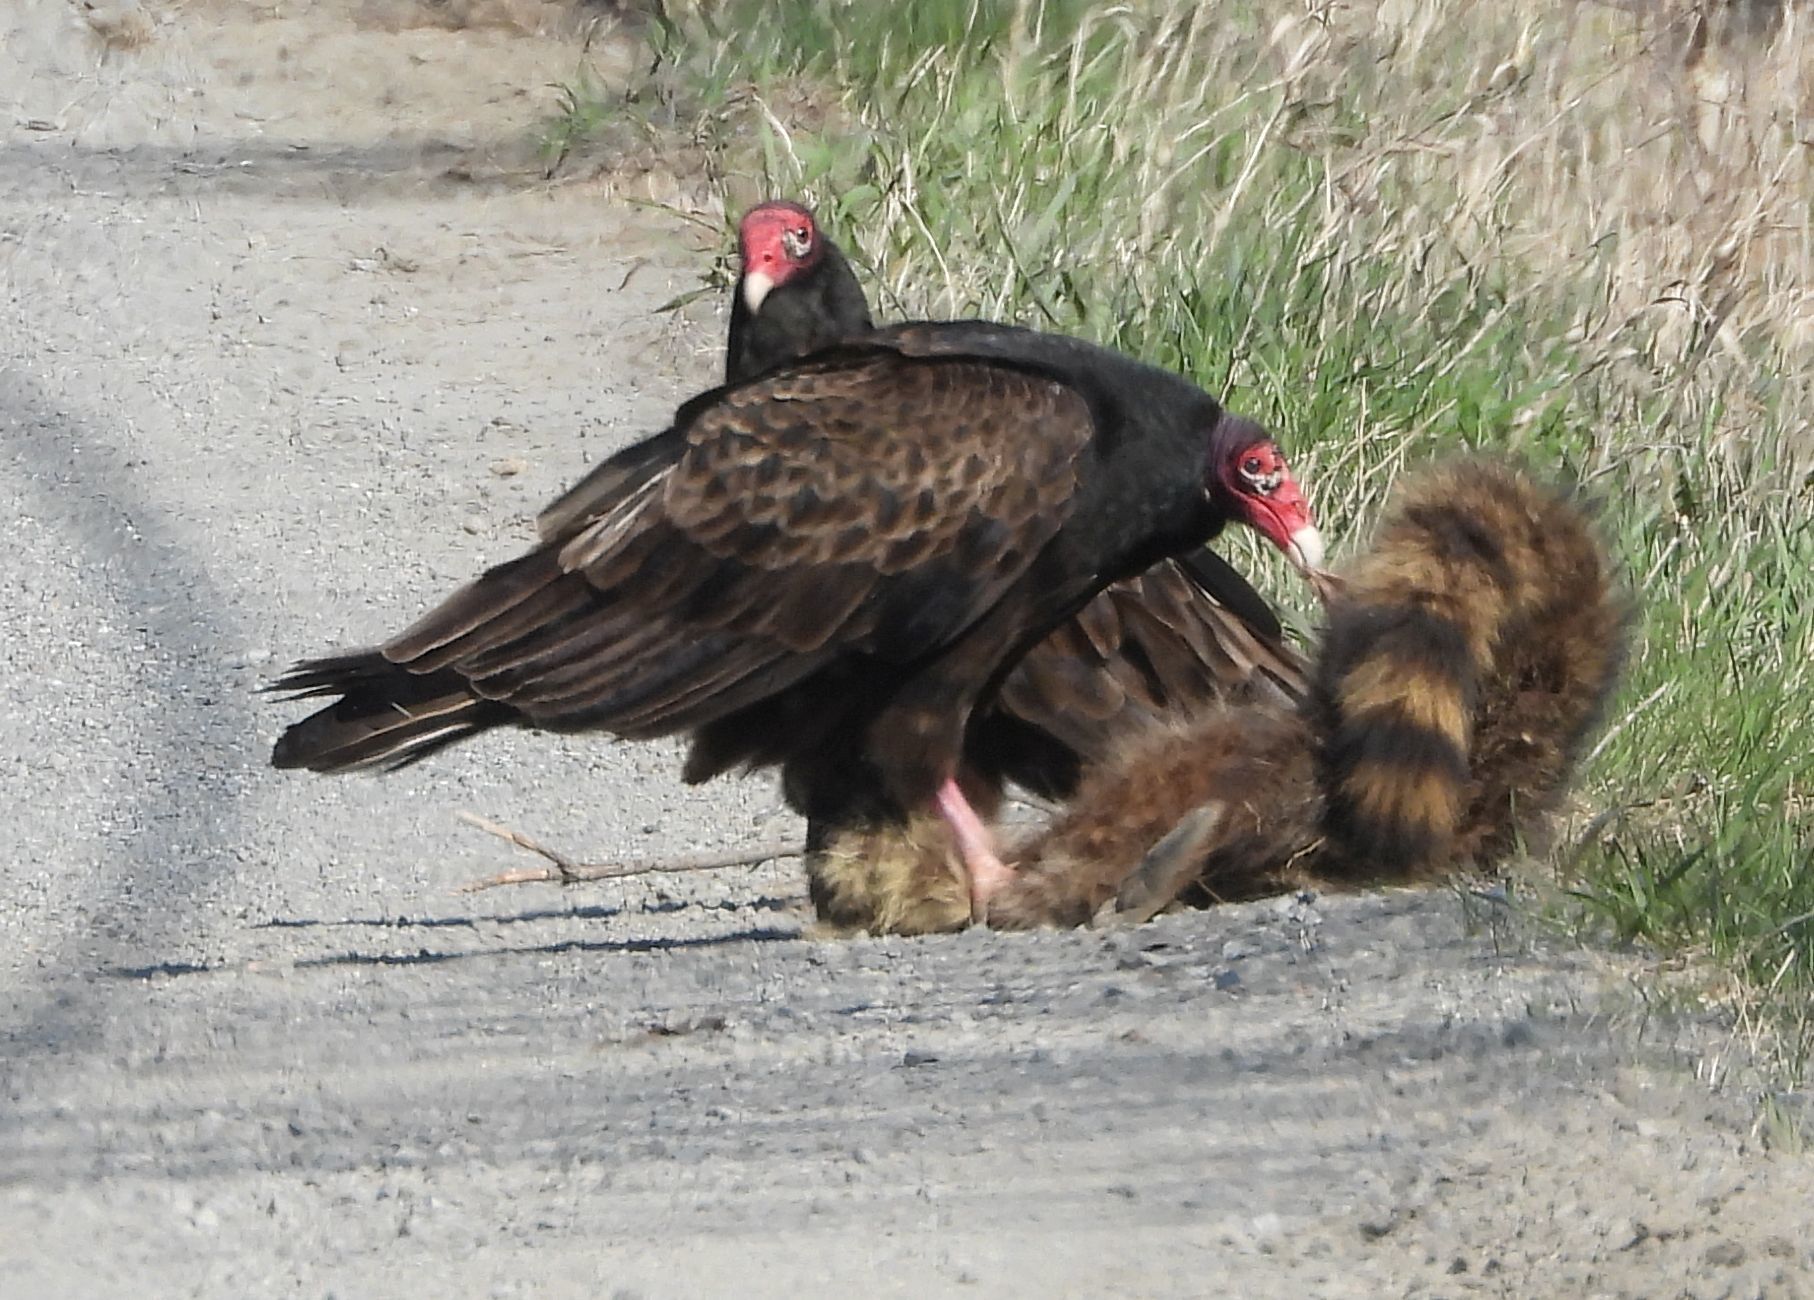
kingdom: Animalia
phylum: Chordata
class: Aves
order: Accipitriformes
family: Cathartidae
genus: Cathartes
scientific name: Cathartes aura
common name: Turkey vulture
